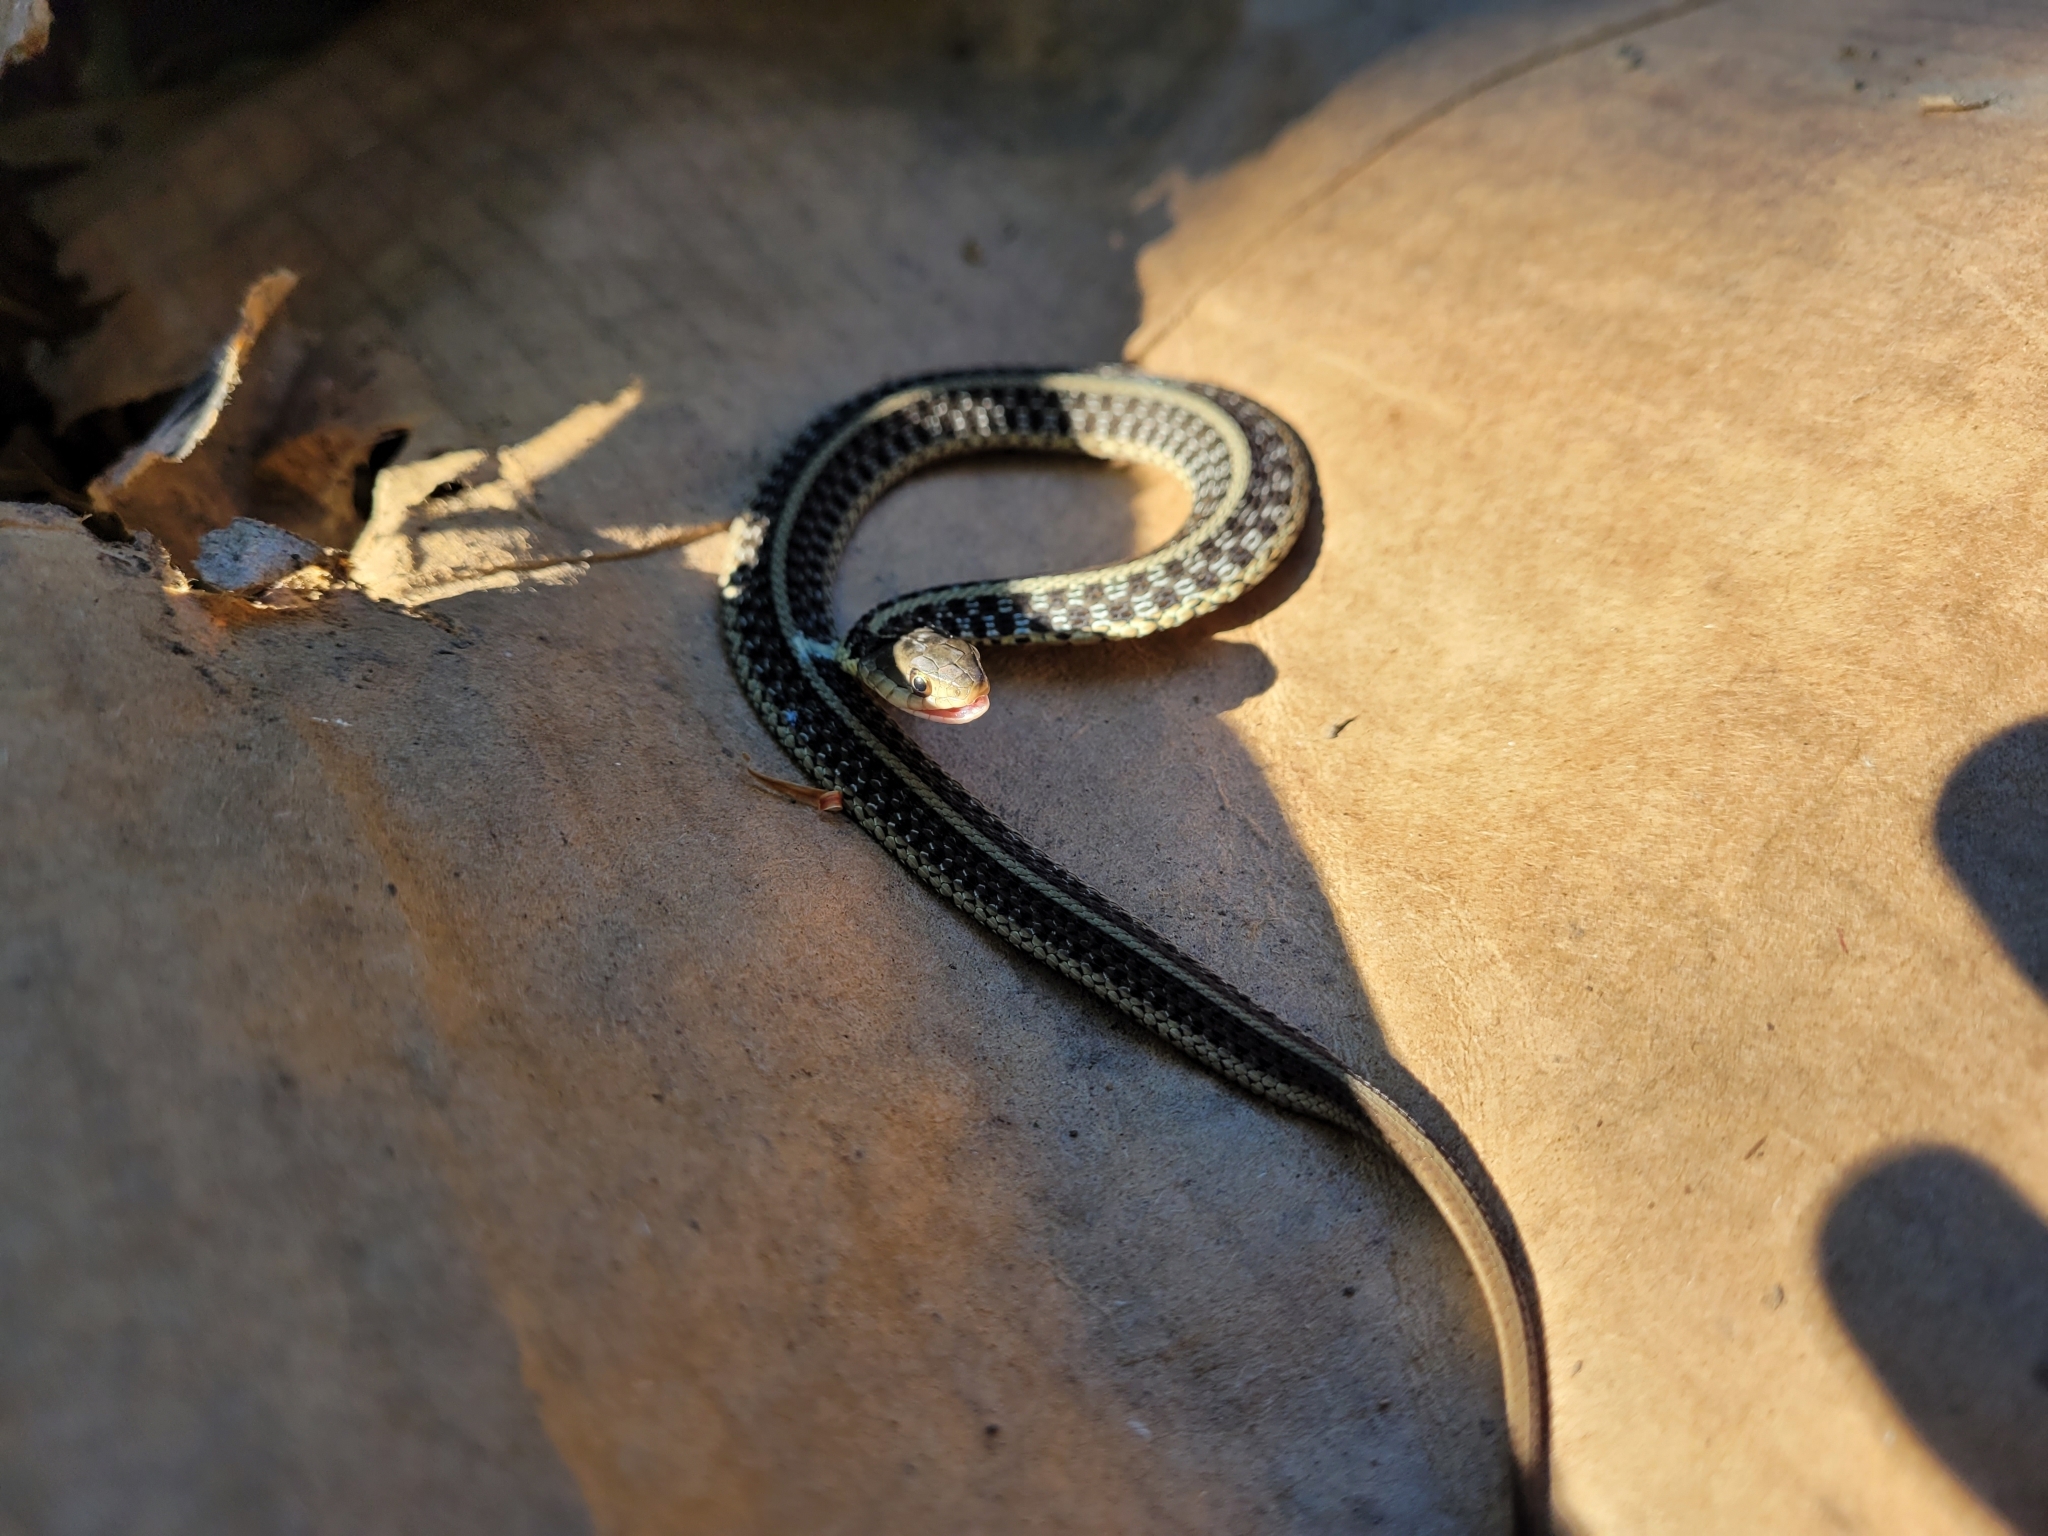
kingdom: Animalia
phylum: Chordata
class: Squamata
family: Colubridae
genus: Thamnophis
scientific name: Thamnophis sirtalis
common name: Common garter snake
